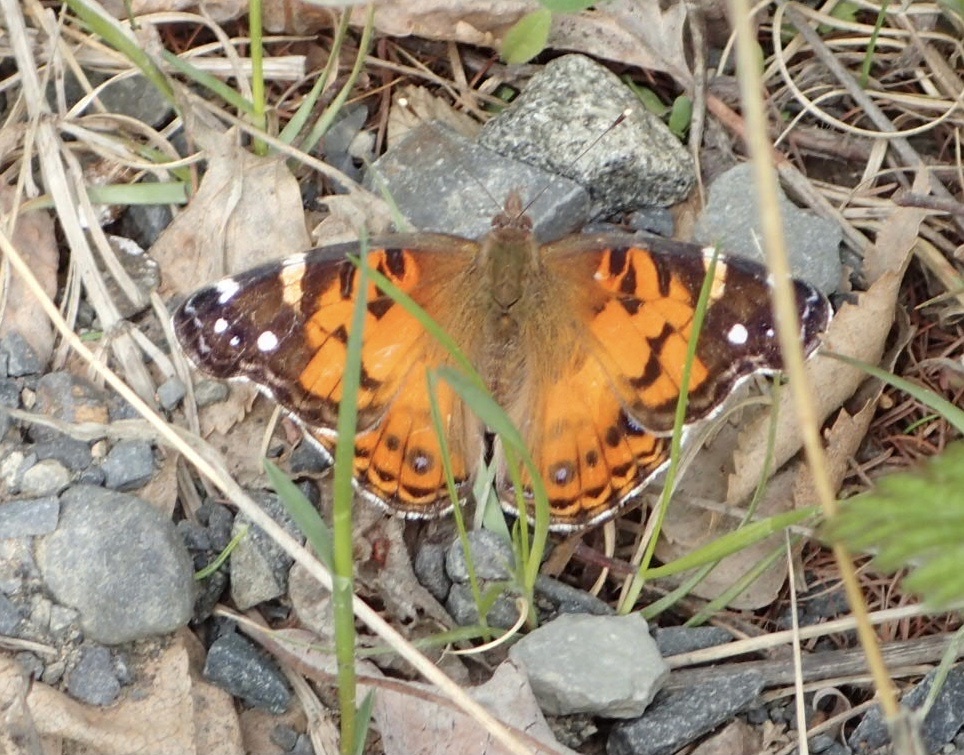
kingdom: Animalia
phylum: Arthropoda
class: Insecta
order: Lepidoptera
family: Nymphalidae
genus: Vanessa
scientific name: Vanessa virginiensis
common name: American lady
